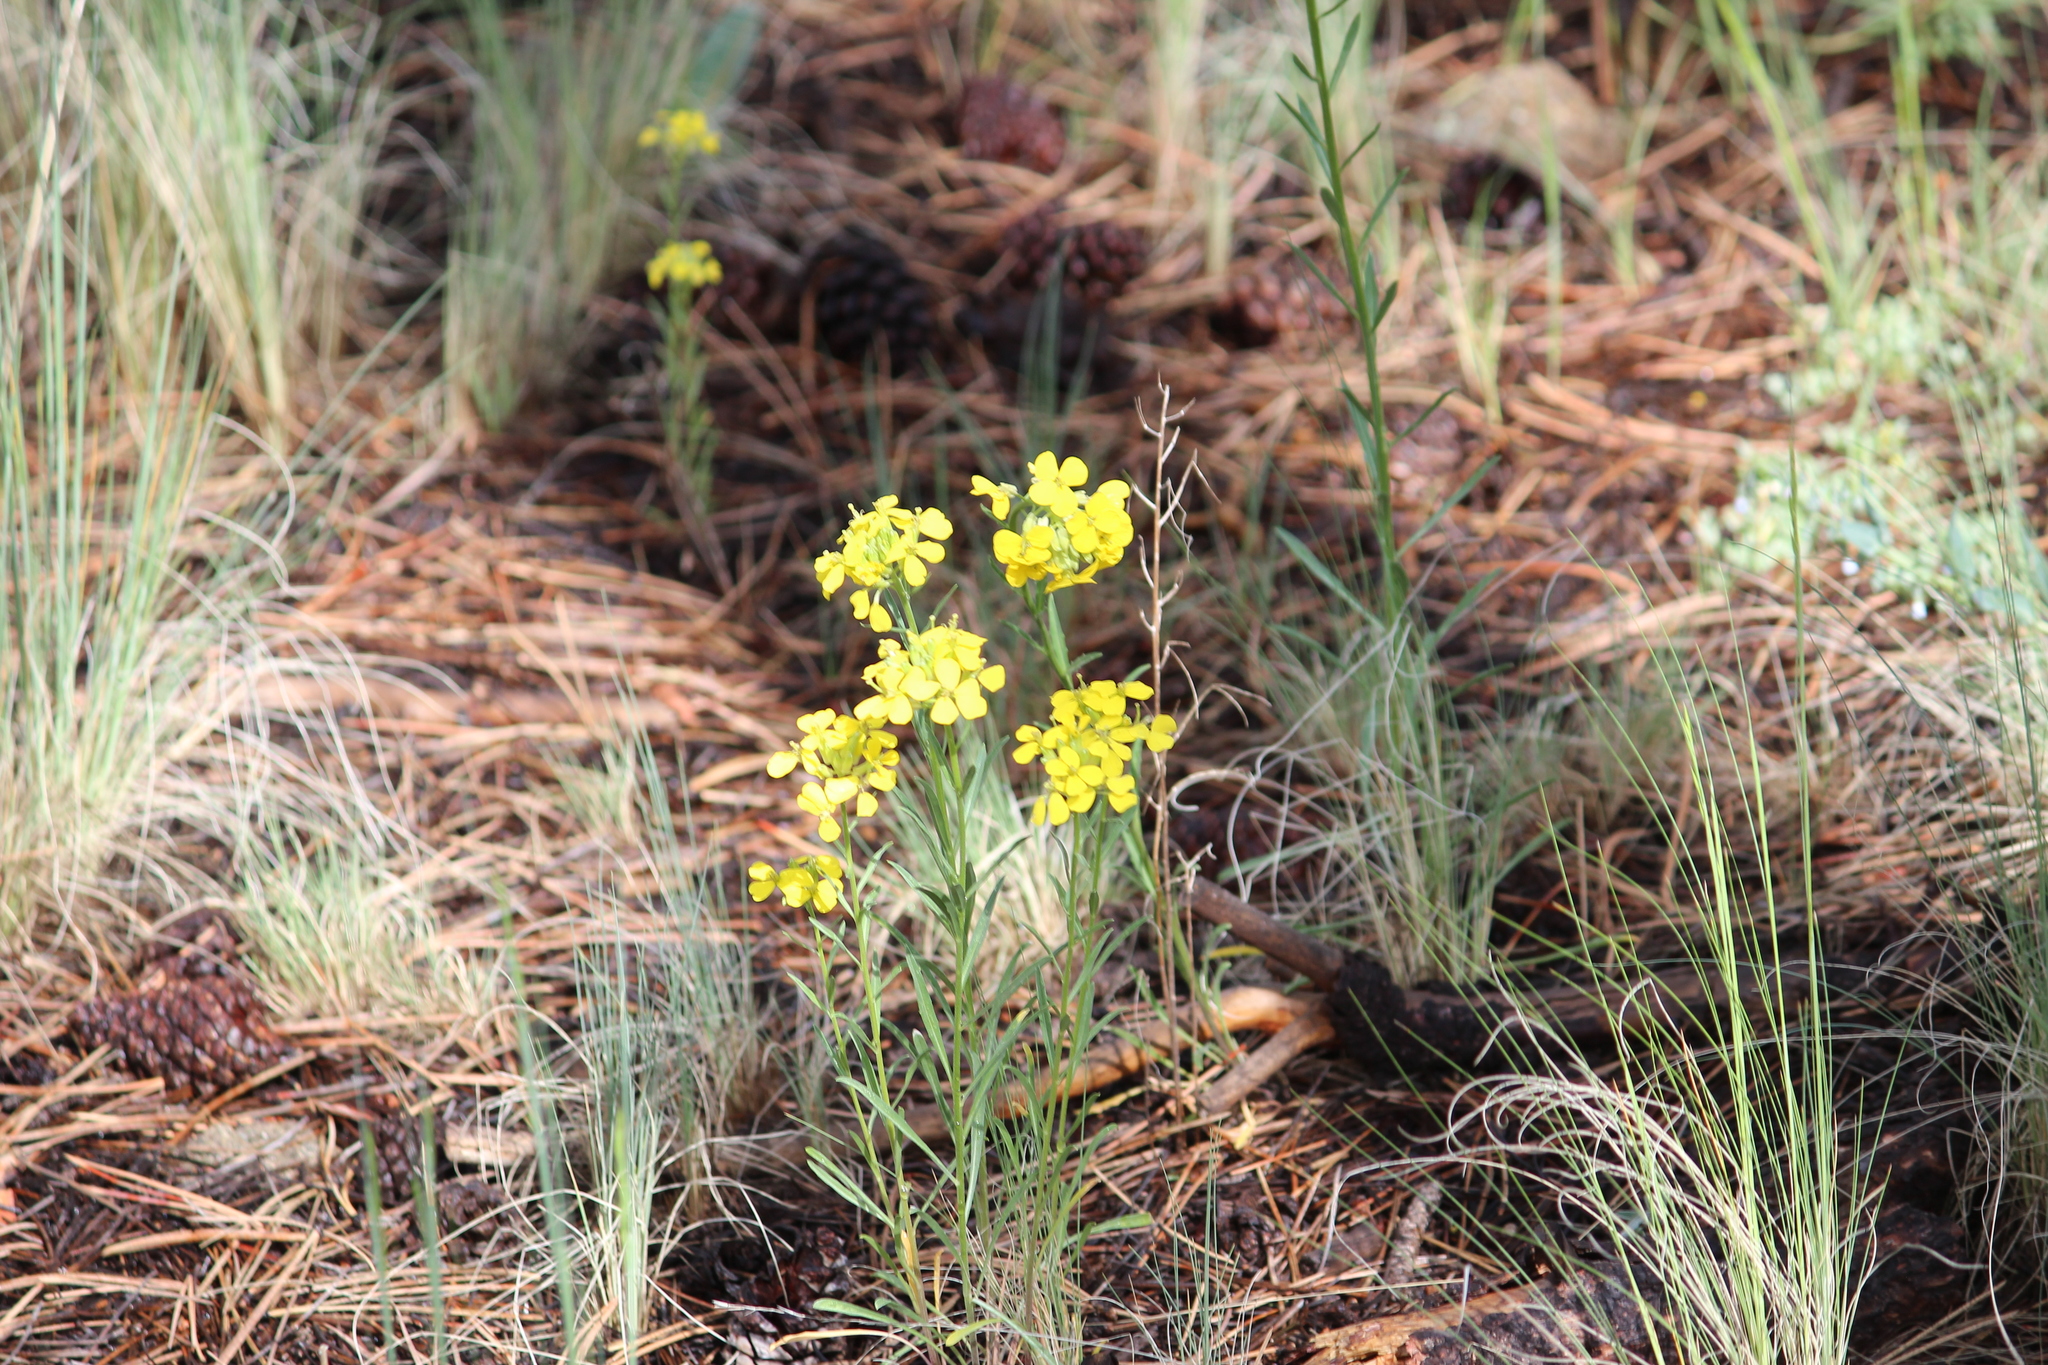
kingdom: Plantae
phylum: Tracheophyta
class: Magnoliopsida
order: Brassicales
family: Brassicaceae
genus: Erysimum
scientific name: Erysimum capitatum
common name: Western wallflower
